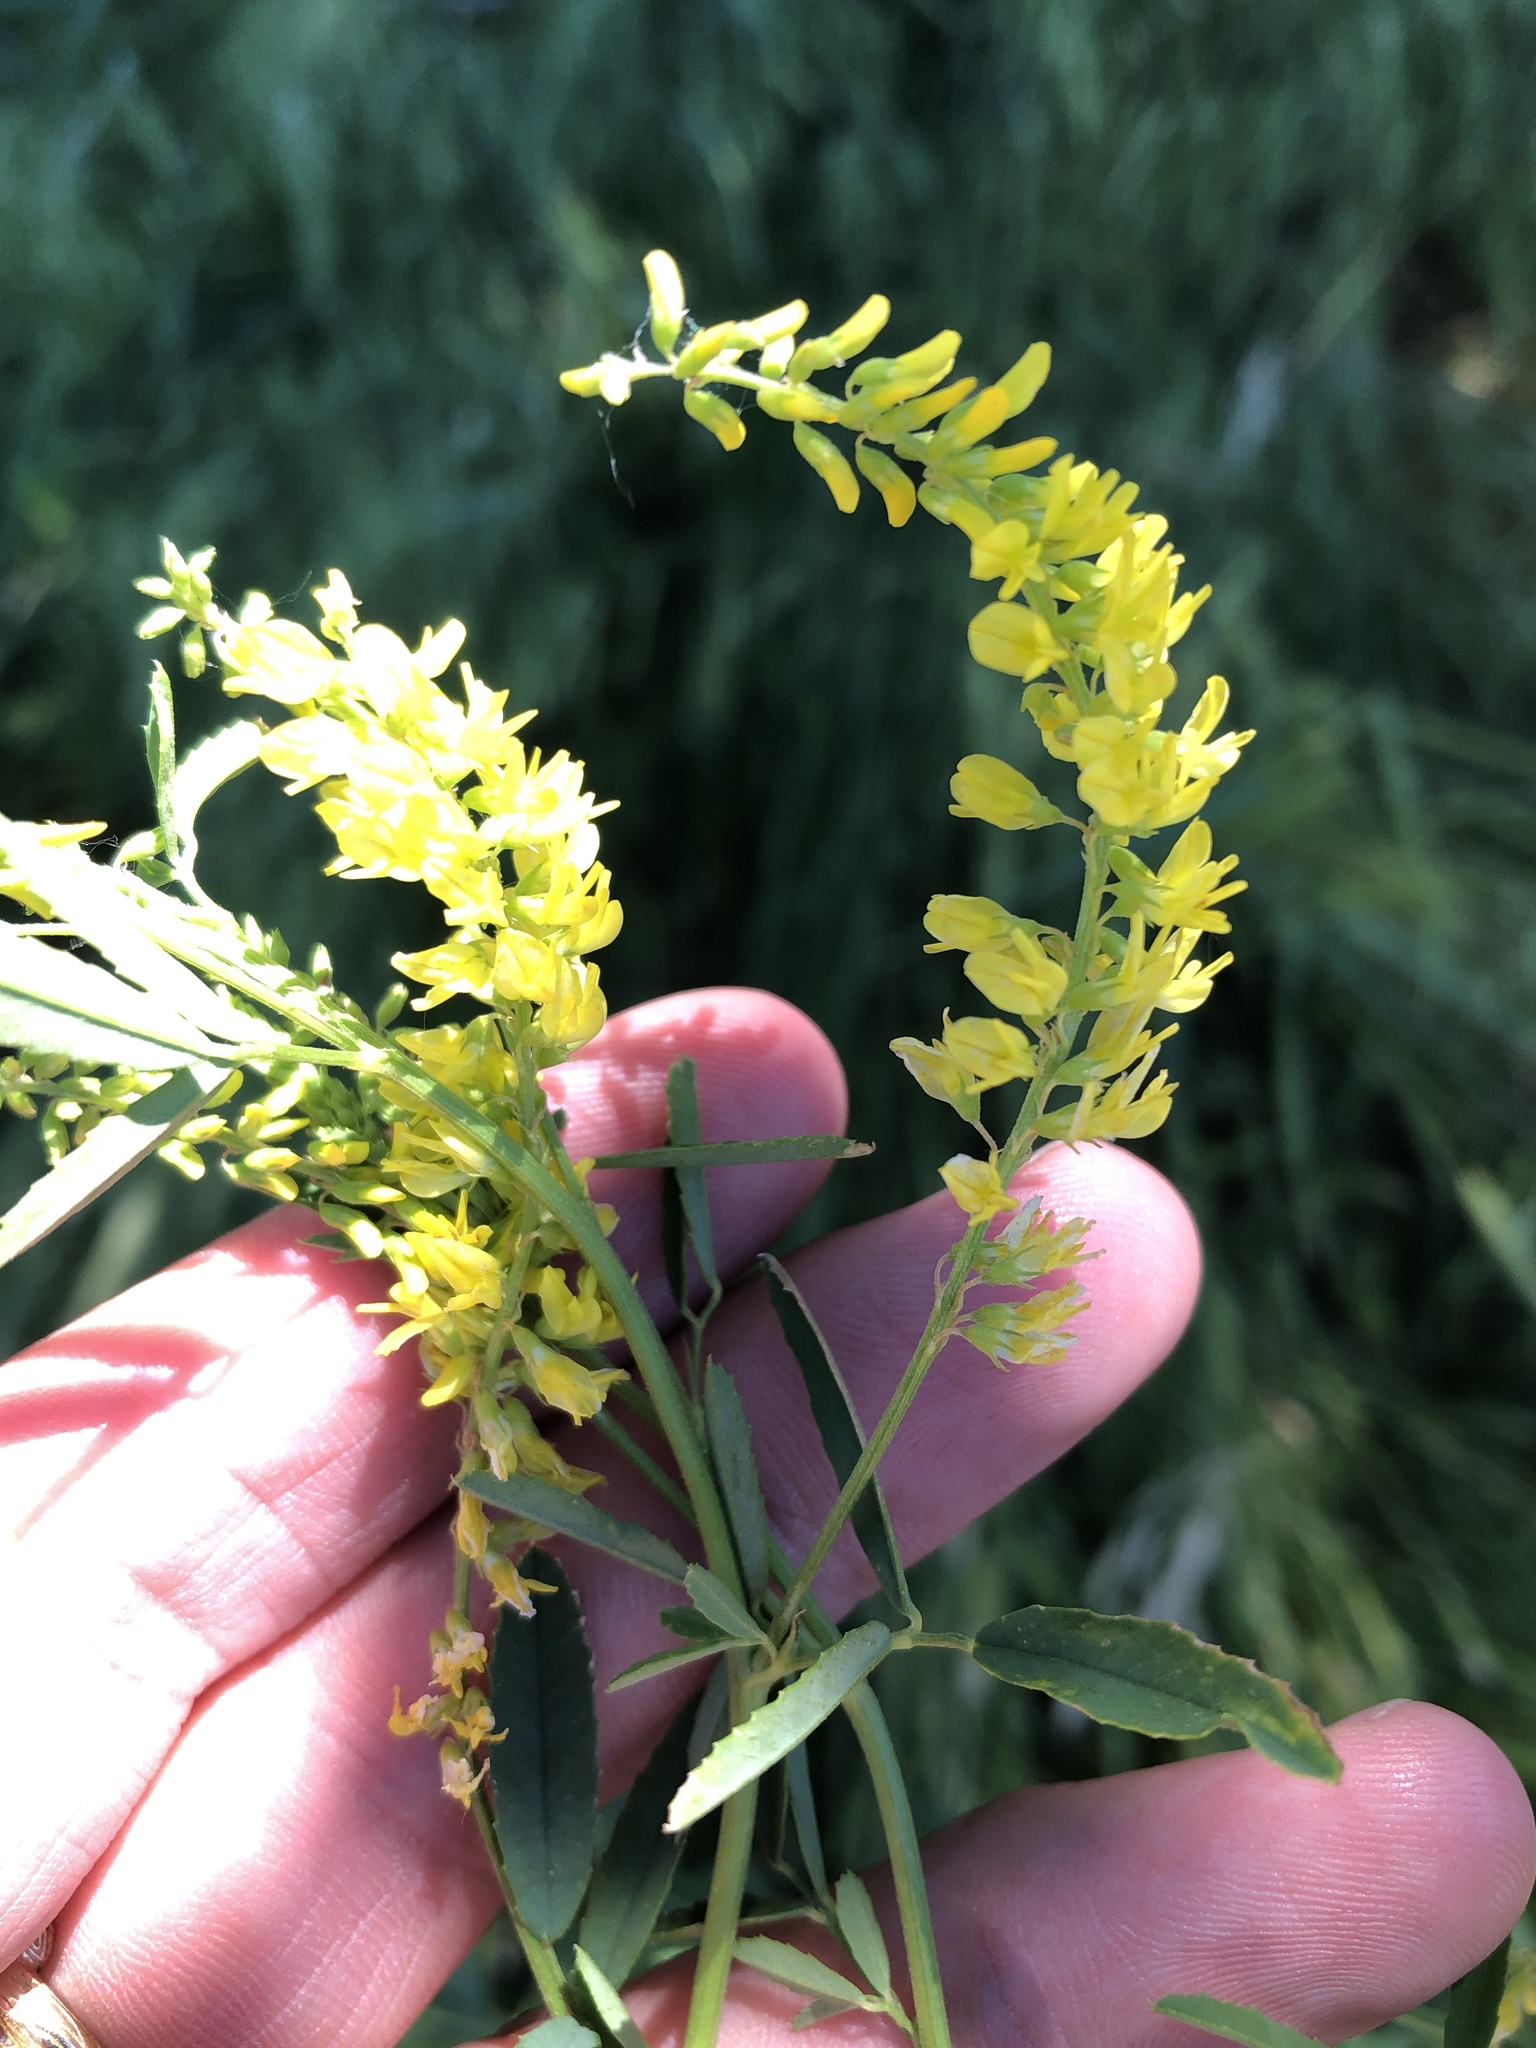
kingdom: Plantae
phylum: Tracheophyta
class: Magnoliopsida
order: Fabales
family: Fabaceae
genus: Melilotus
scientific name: Melilotus officinalis
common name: Sweetclover
